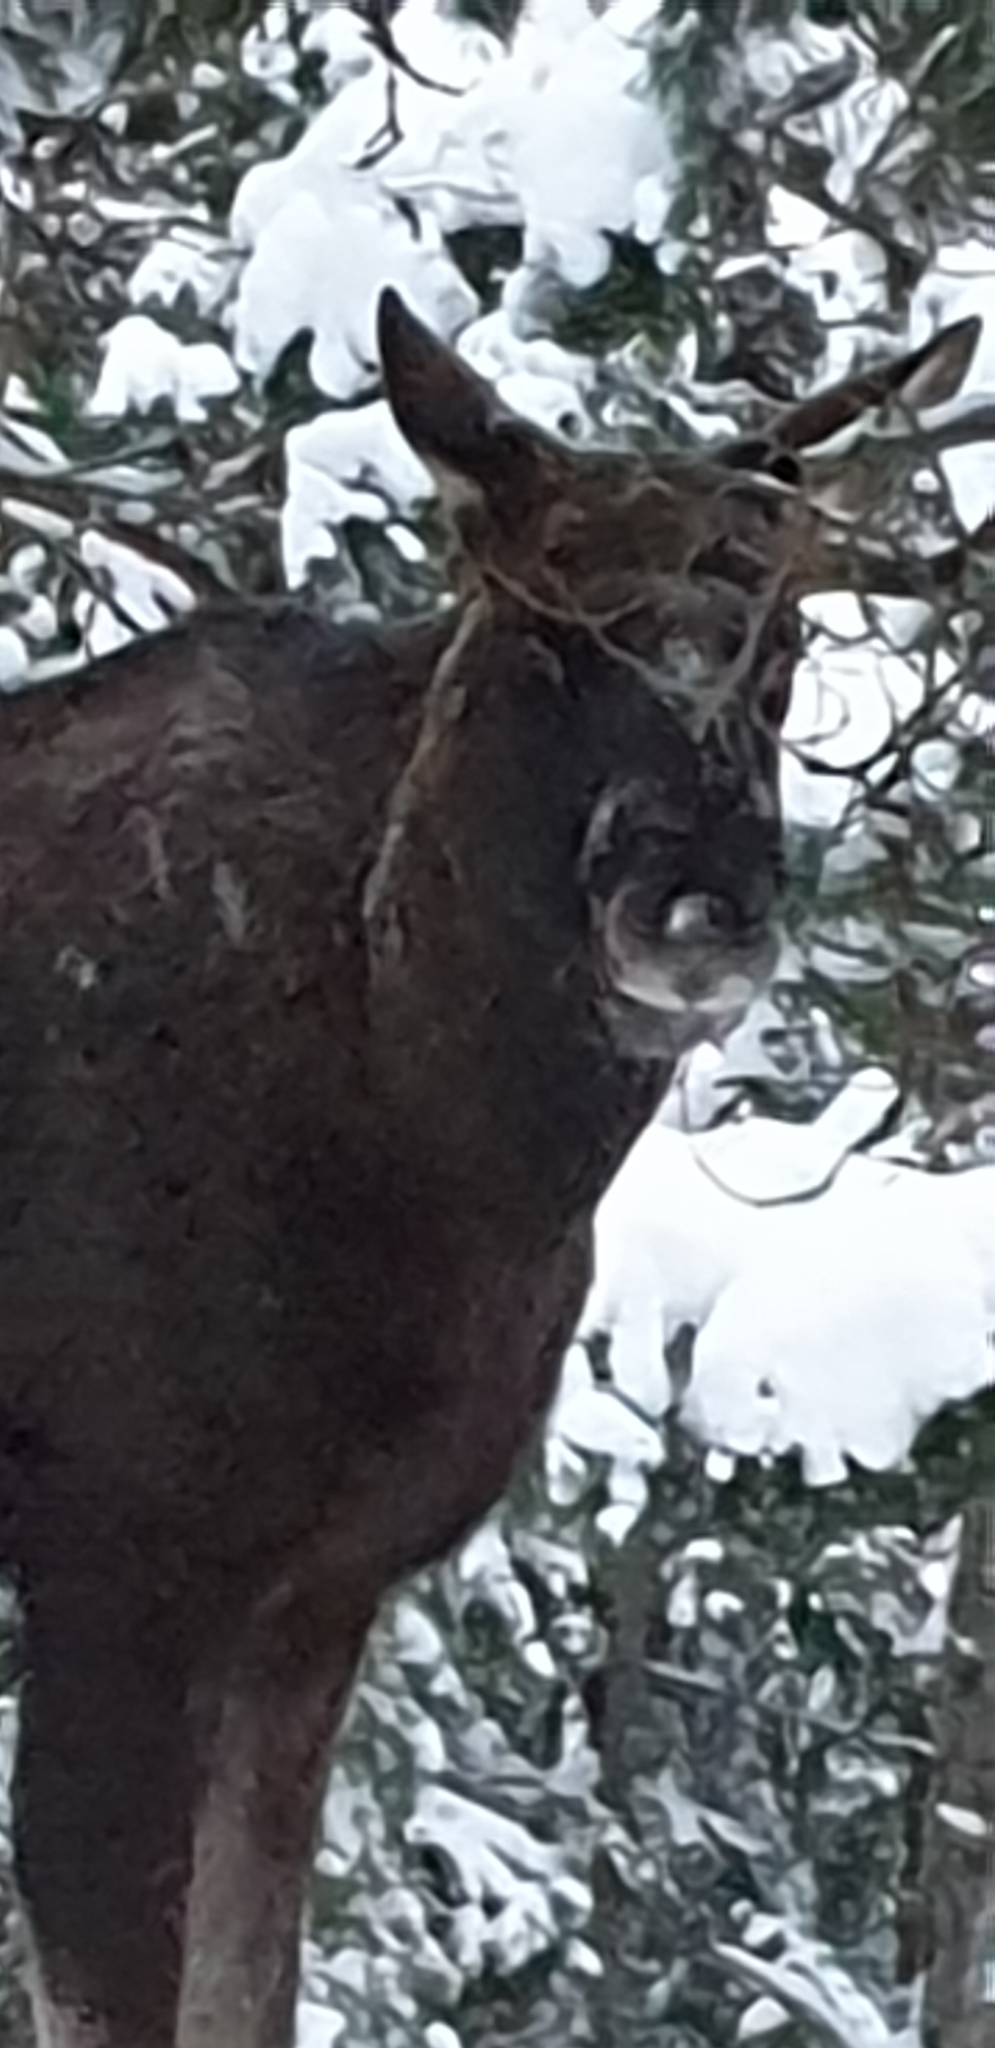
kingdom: Animalia
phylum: Chordata
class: Mammalia
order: Artiodactyla
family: Cervidae
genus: Alces
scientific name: Alces alces
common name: Moose
